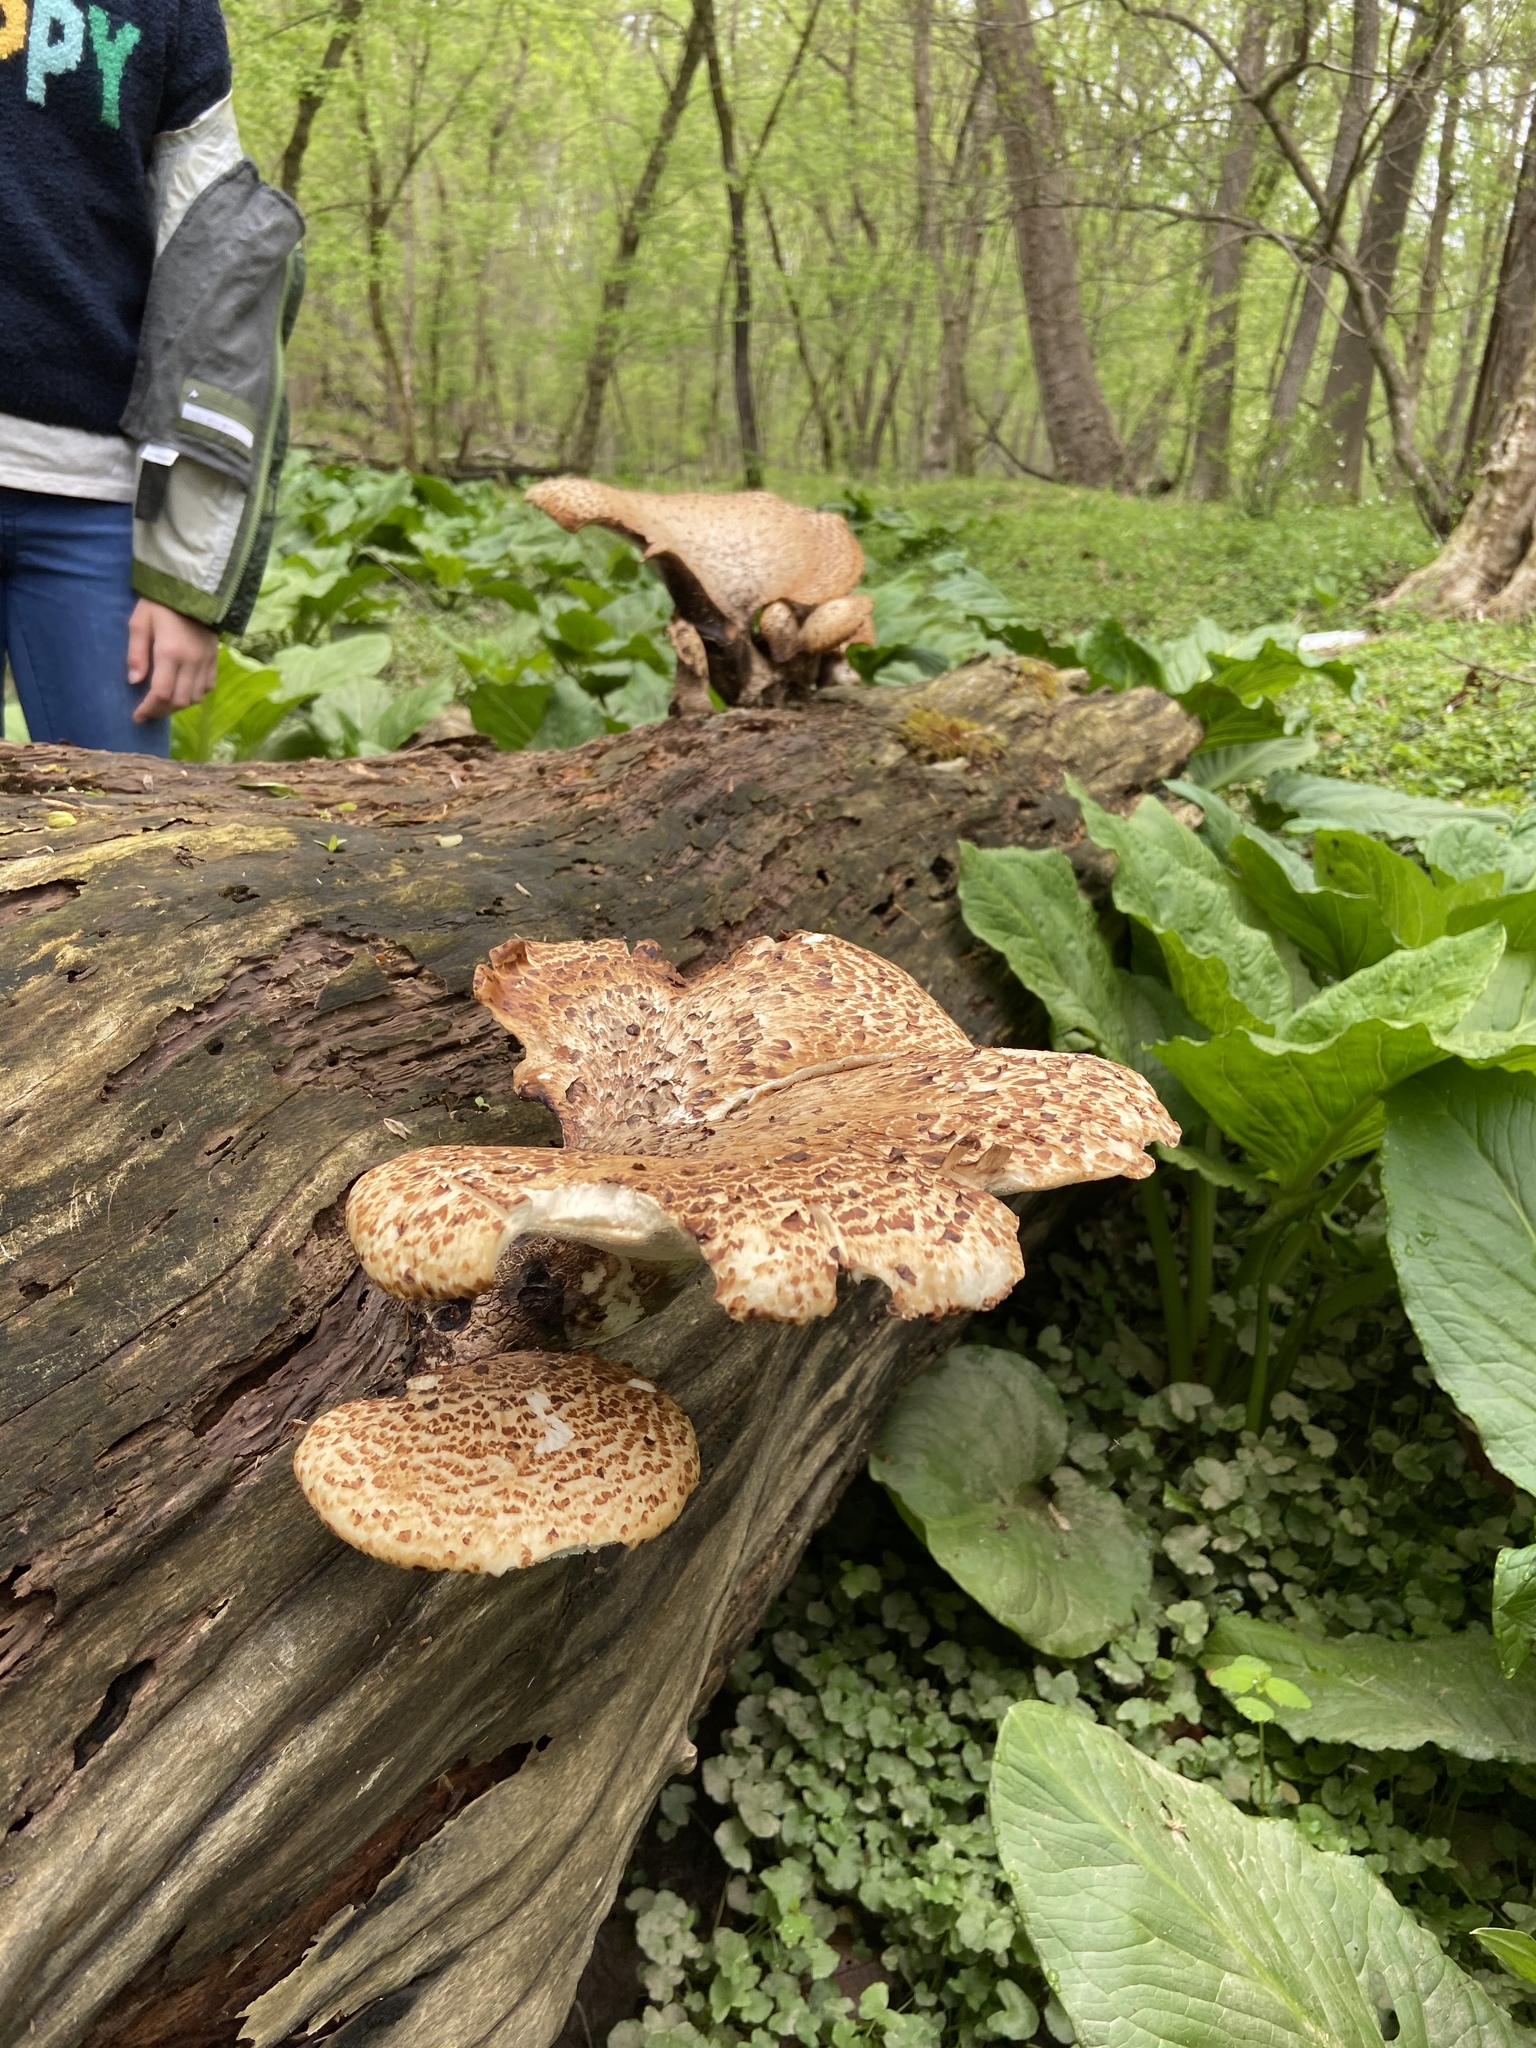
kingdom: Fungi
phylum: Basidiomycota
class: Agaricomycetes
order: Polyporales
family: Polyporaceae
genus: Cerioporus
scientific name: Cerioporus squamosus
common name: Dryad's saddle
